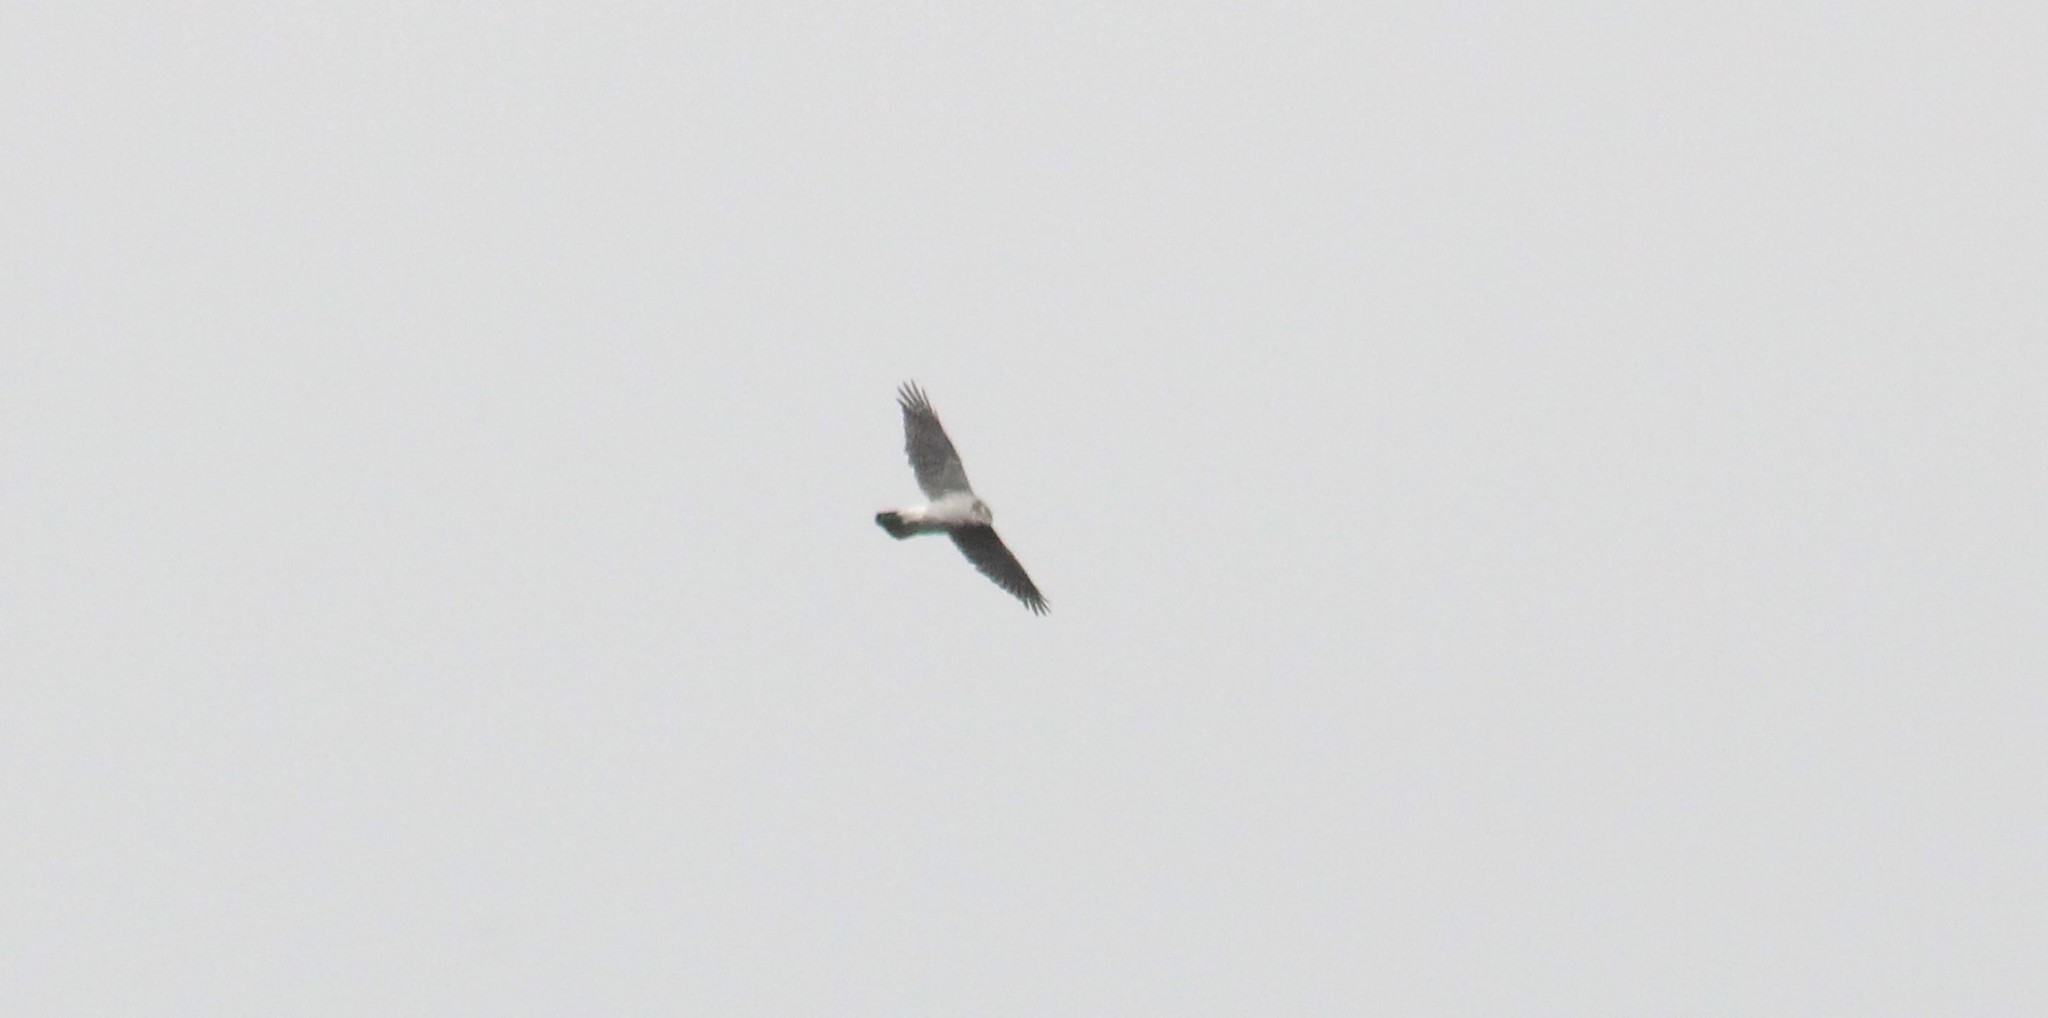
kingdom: Animalia
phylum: Chordata
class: Aves
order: Accipitriformes
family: Accipitridae
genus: Accipiter
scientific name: Accipiter nisus
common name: Eurasian sparrowhawk
